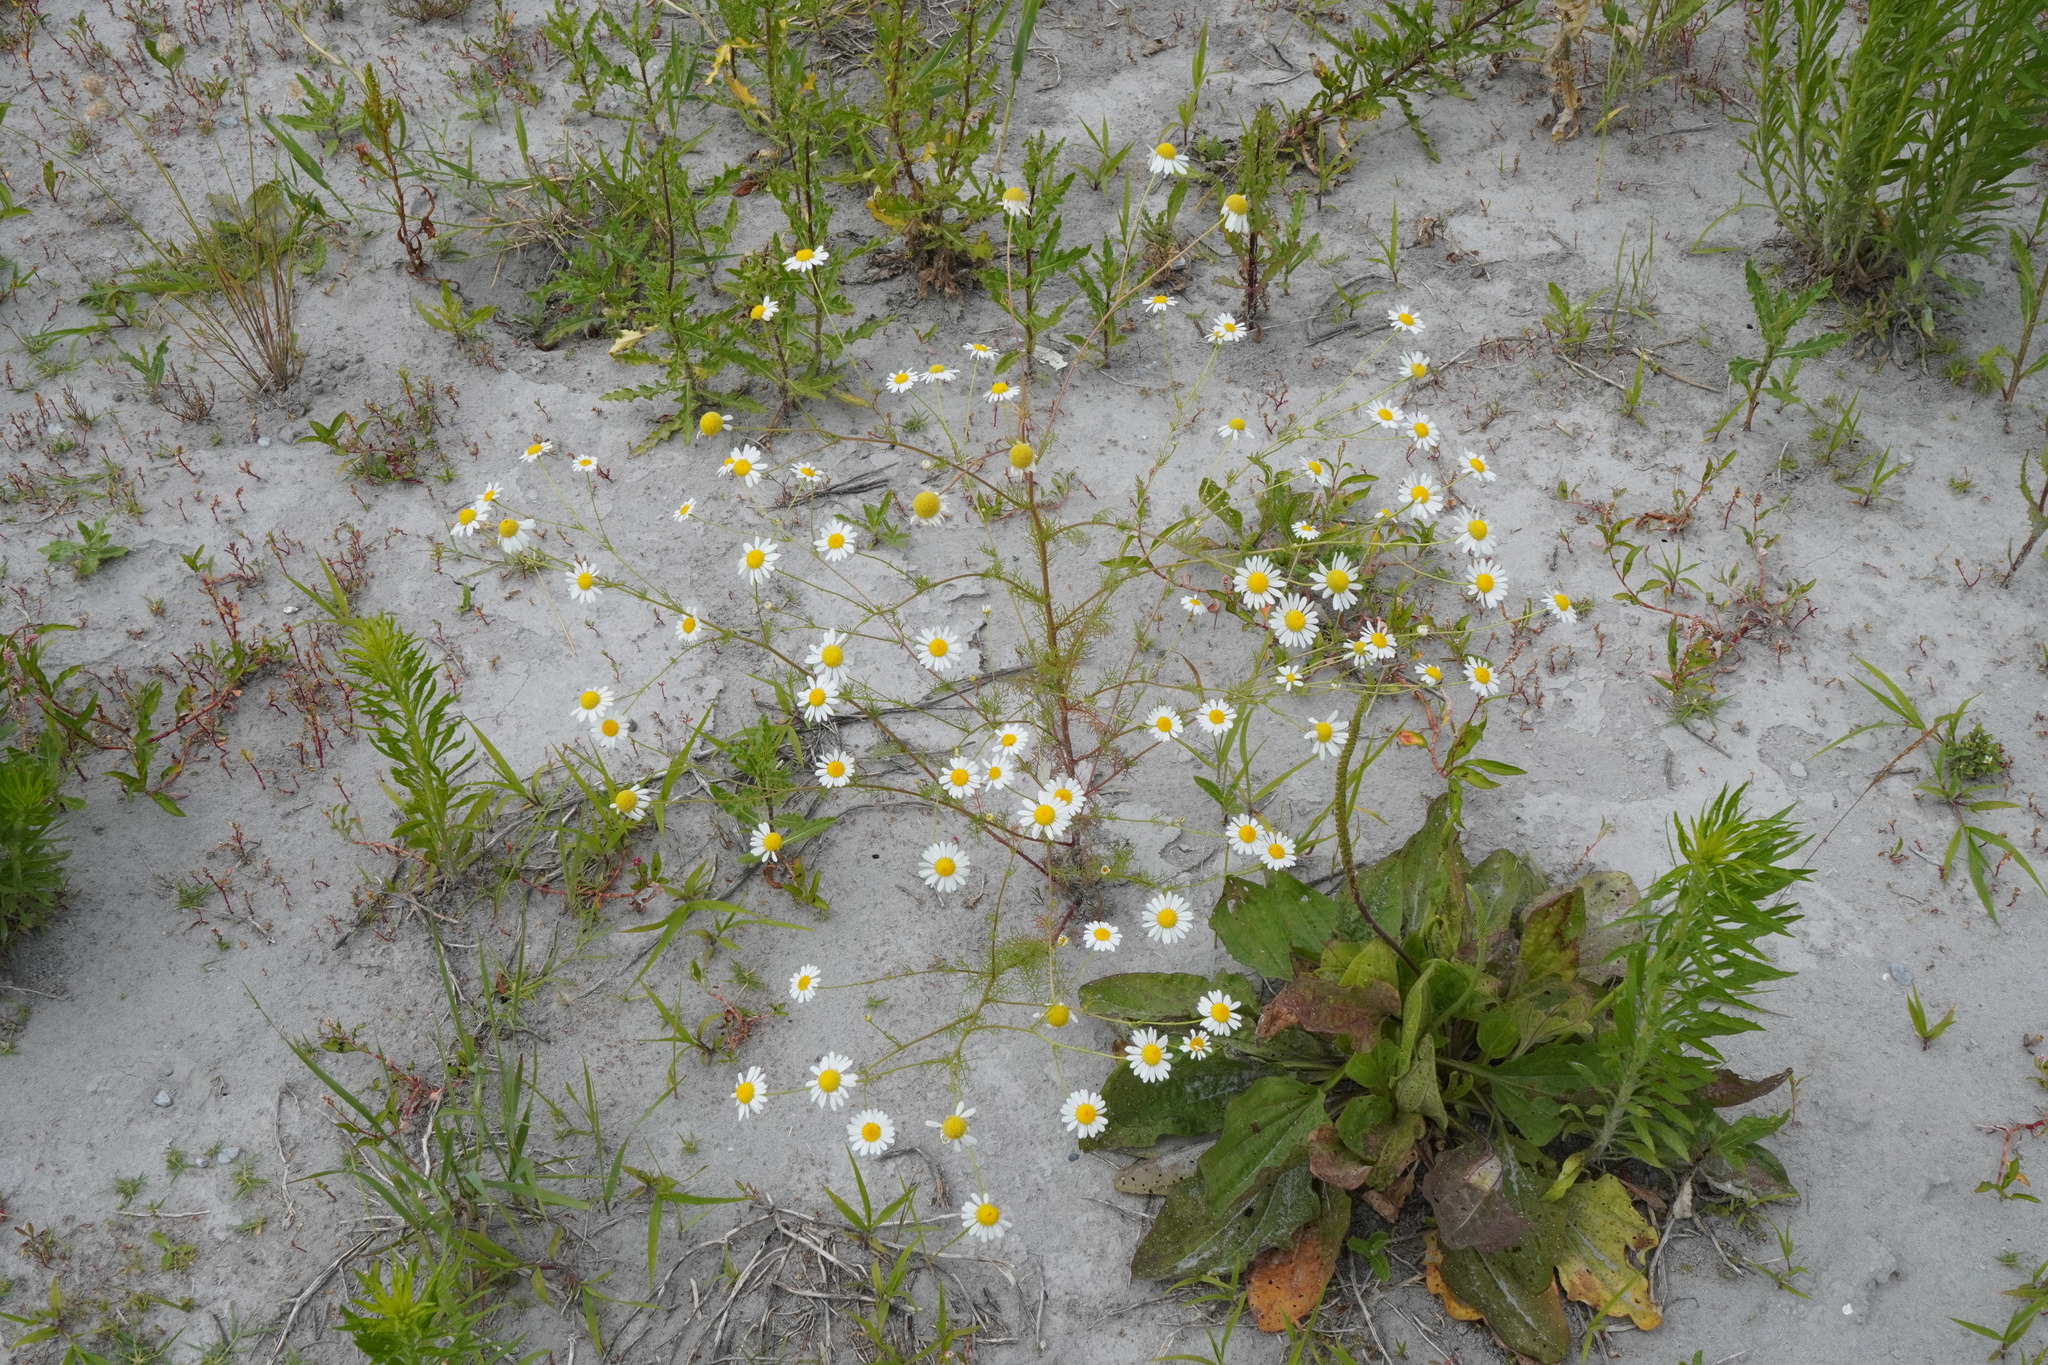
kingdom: Plantae
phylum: Tracheophyta
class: Magnoliopsida
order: Asterales
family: Asteraceae
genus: Tripleurospermum
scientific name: Tripleurospermum inodorum
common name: Scentless mayweed
